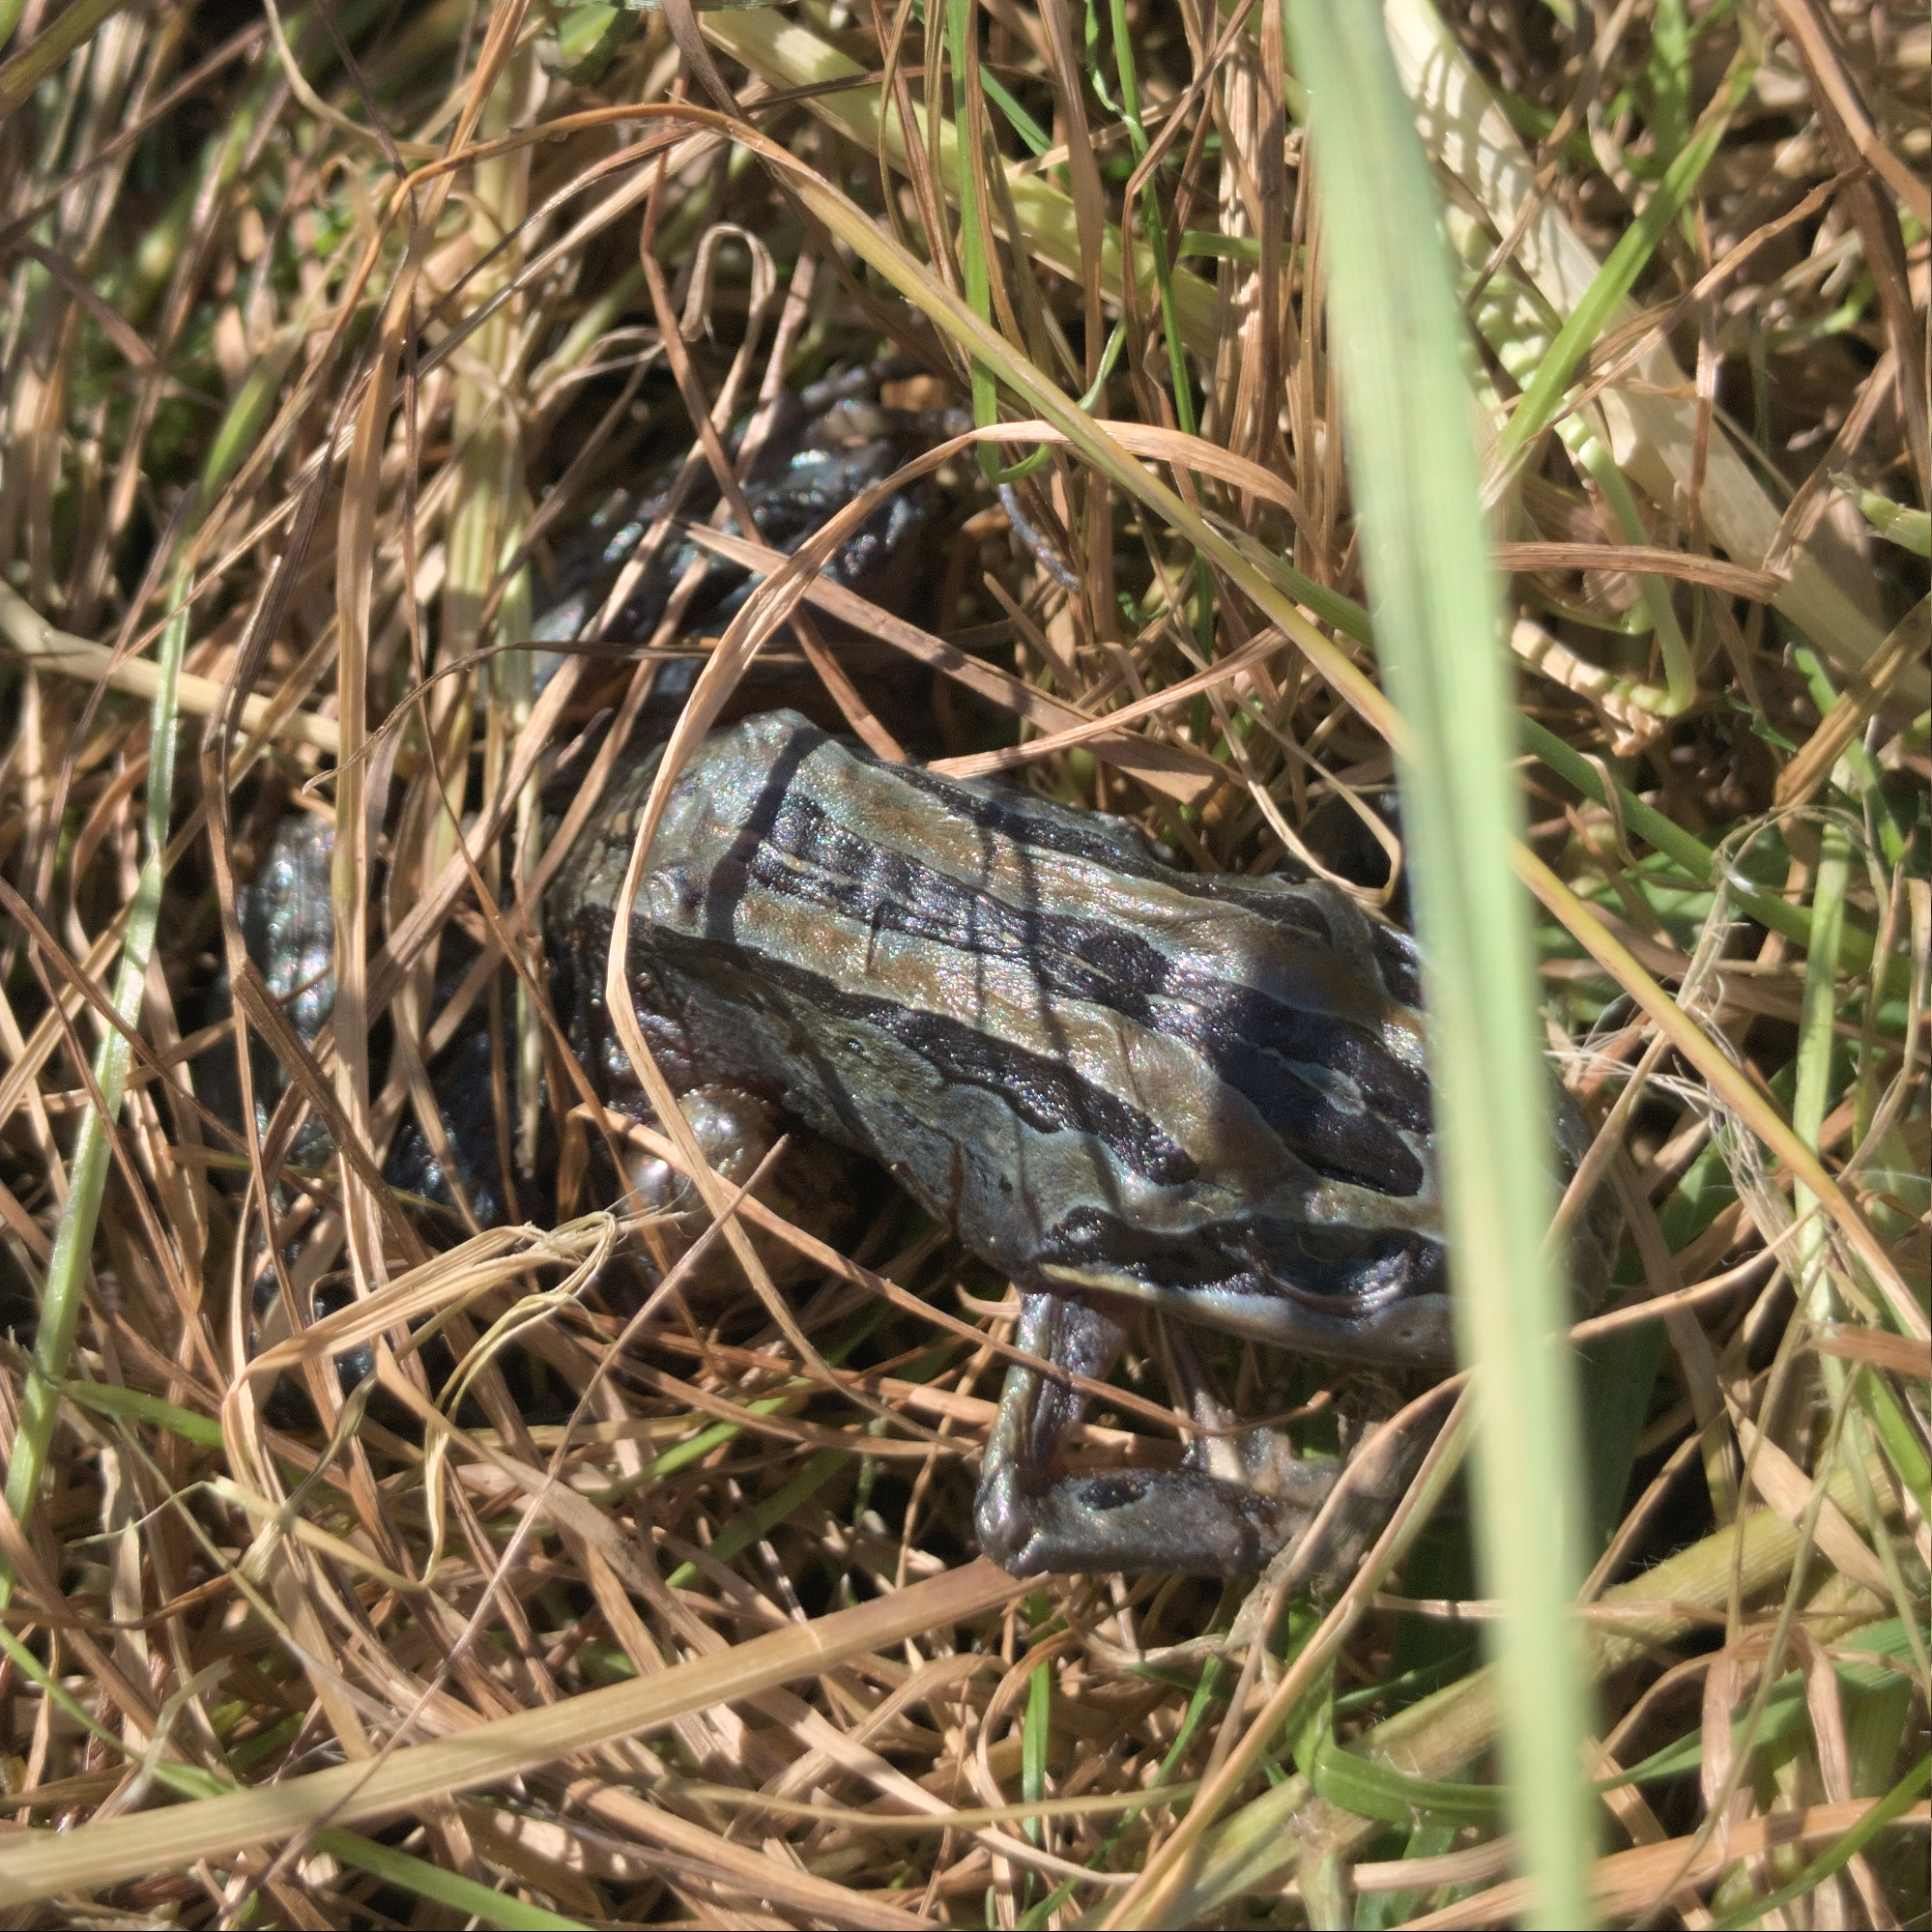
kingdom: Animalia
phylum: Chordata
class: Amphibia
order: Anura
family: Limnodynastidae
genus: Limnodynastes
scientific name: Limnodynastes peronii
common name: Brown frog
